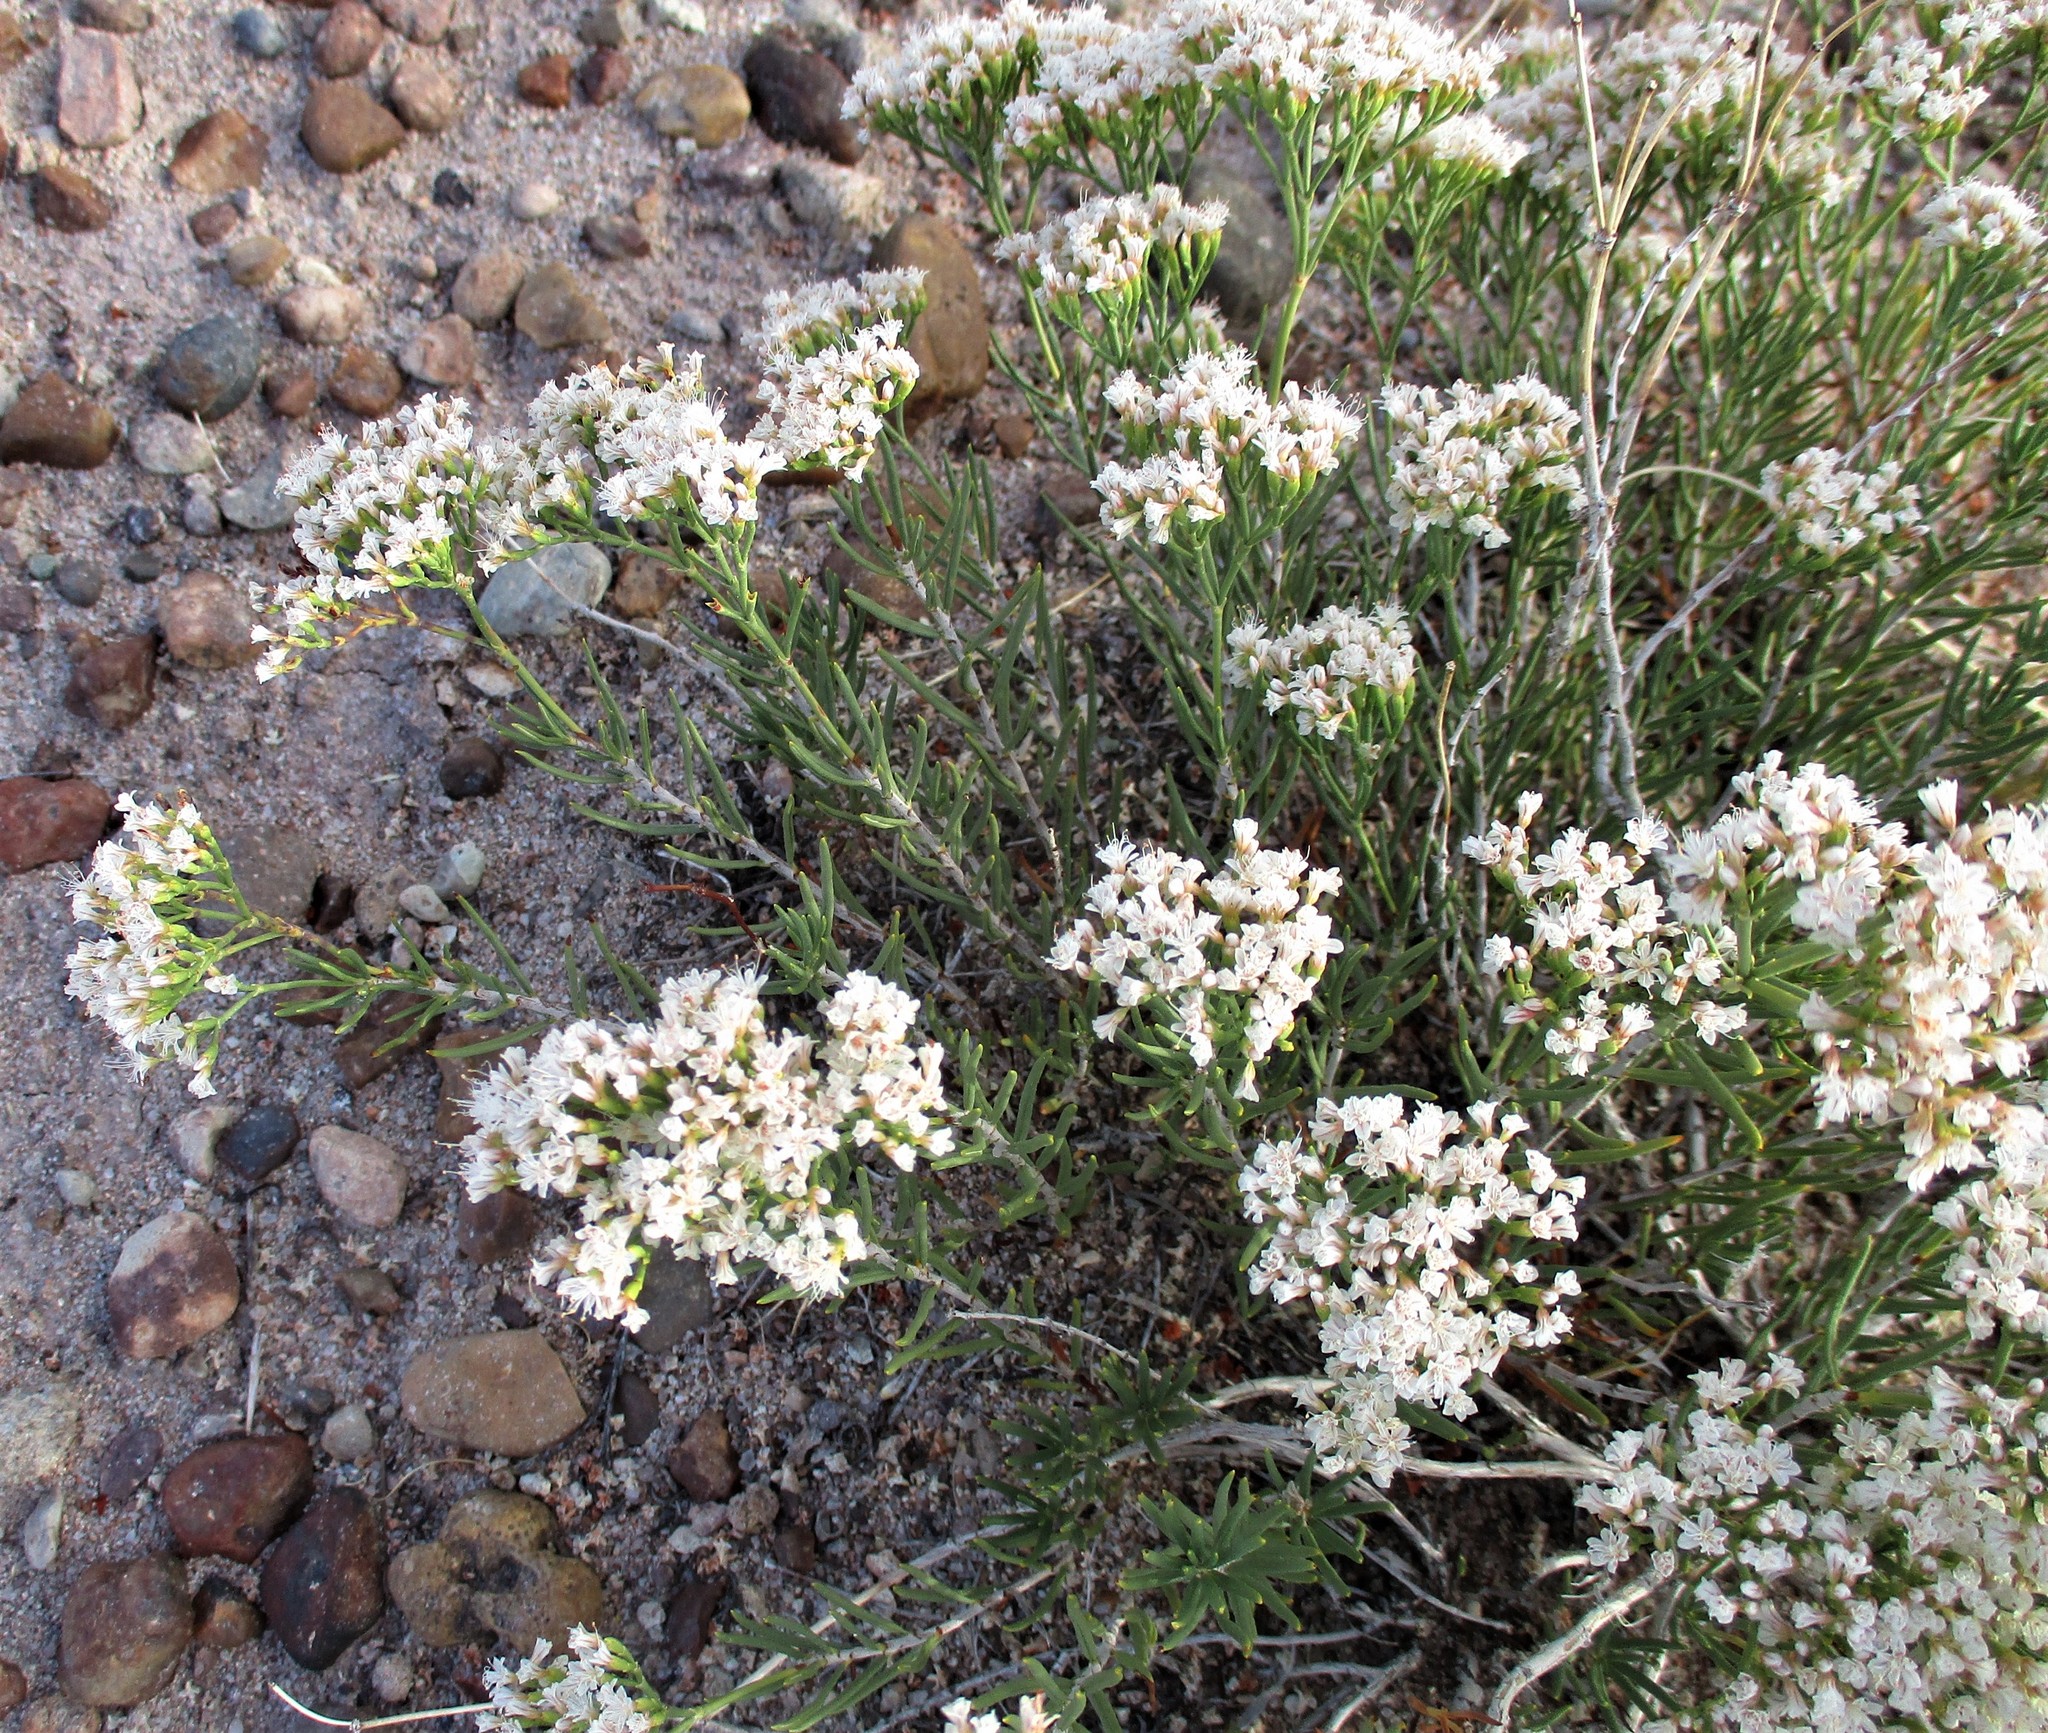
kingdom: Plantae
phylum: Tracheophyta
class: Magnoliopsida
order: Caryophyllales
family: Polygonaceae
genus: Eriogonum
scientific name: Eriogonum leptophyllum
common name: Slender-leaf wild buckwheat
